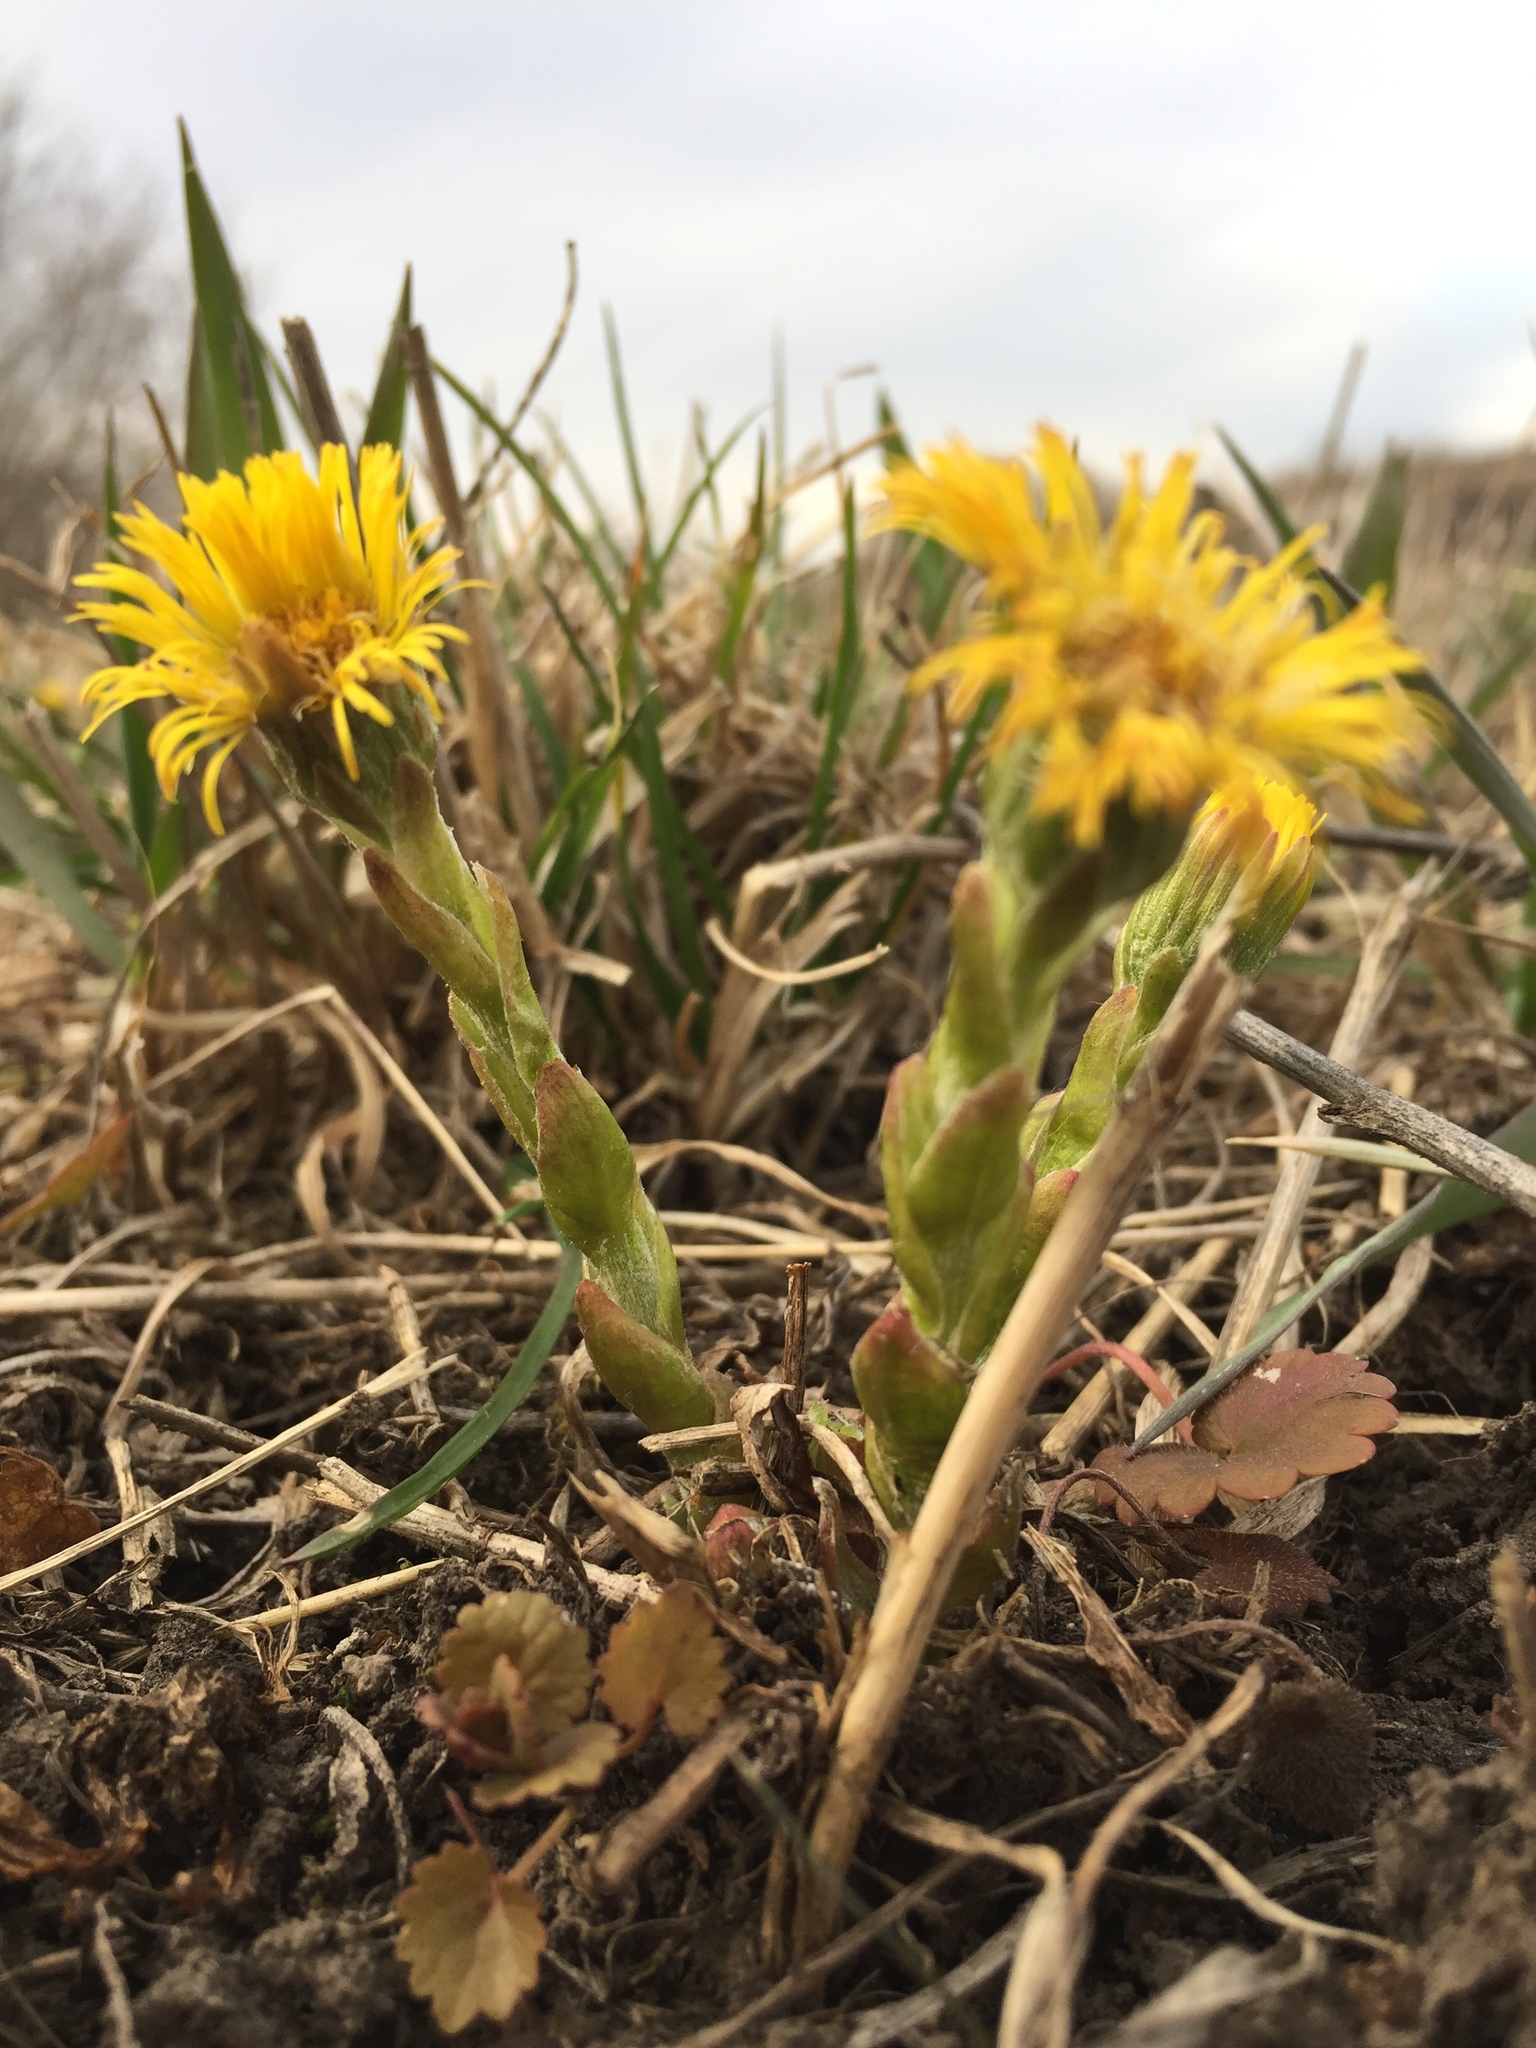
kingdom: Plantae
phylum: Tracheophyta
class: Magnoliopsida
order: Asterales
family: Asteraceae
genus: Tussilago
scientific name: Tussilago farfara
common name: Coltsfoot
